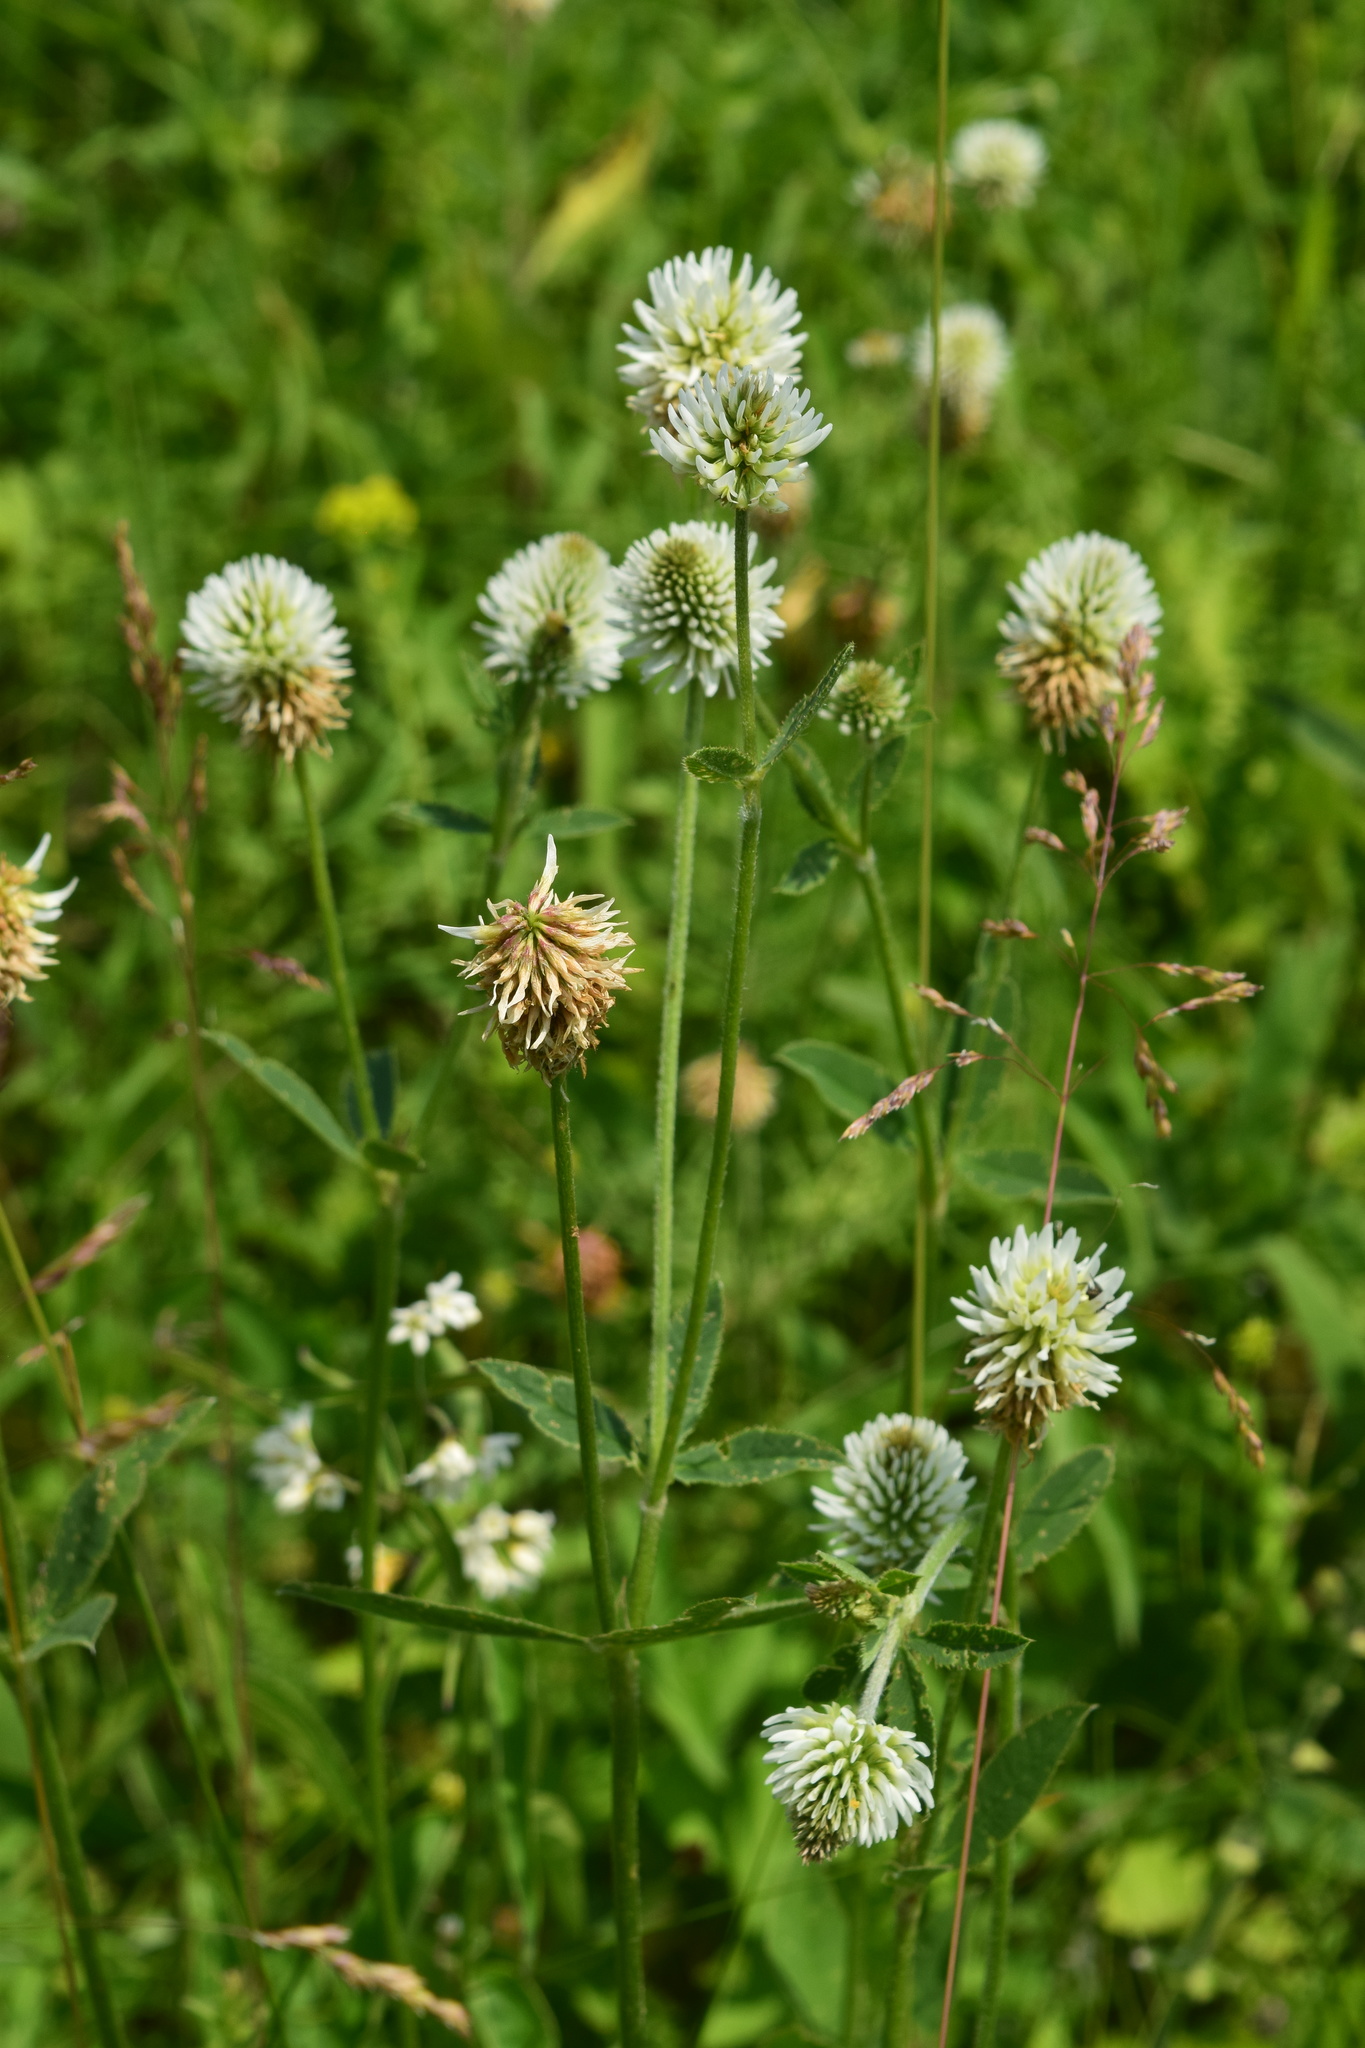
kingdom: Plantae
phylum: Tracheophyta
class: Magnoliopsida
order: Fabales
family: Fabaceae
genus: Trifolium
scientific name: Trifolium montanum
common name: Mountain clover
